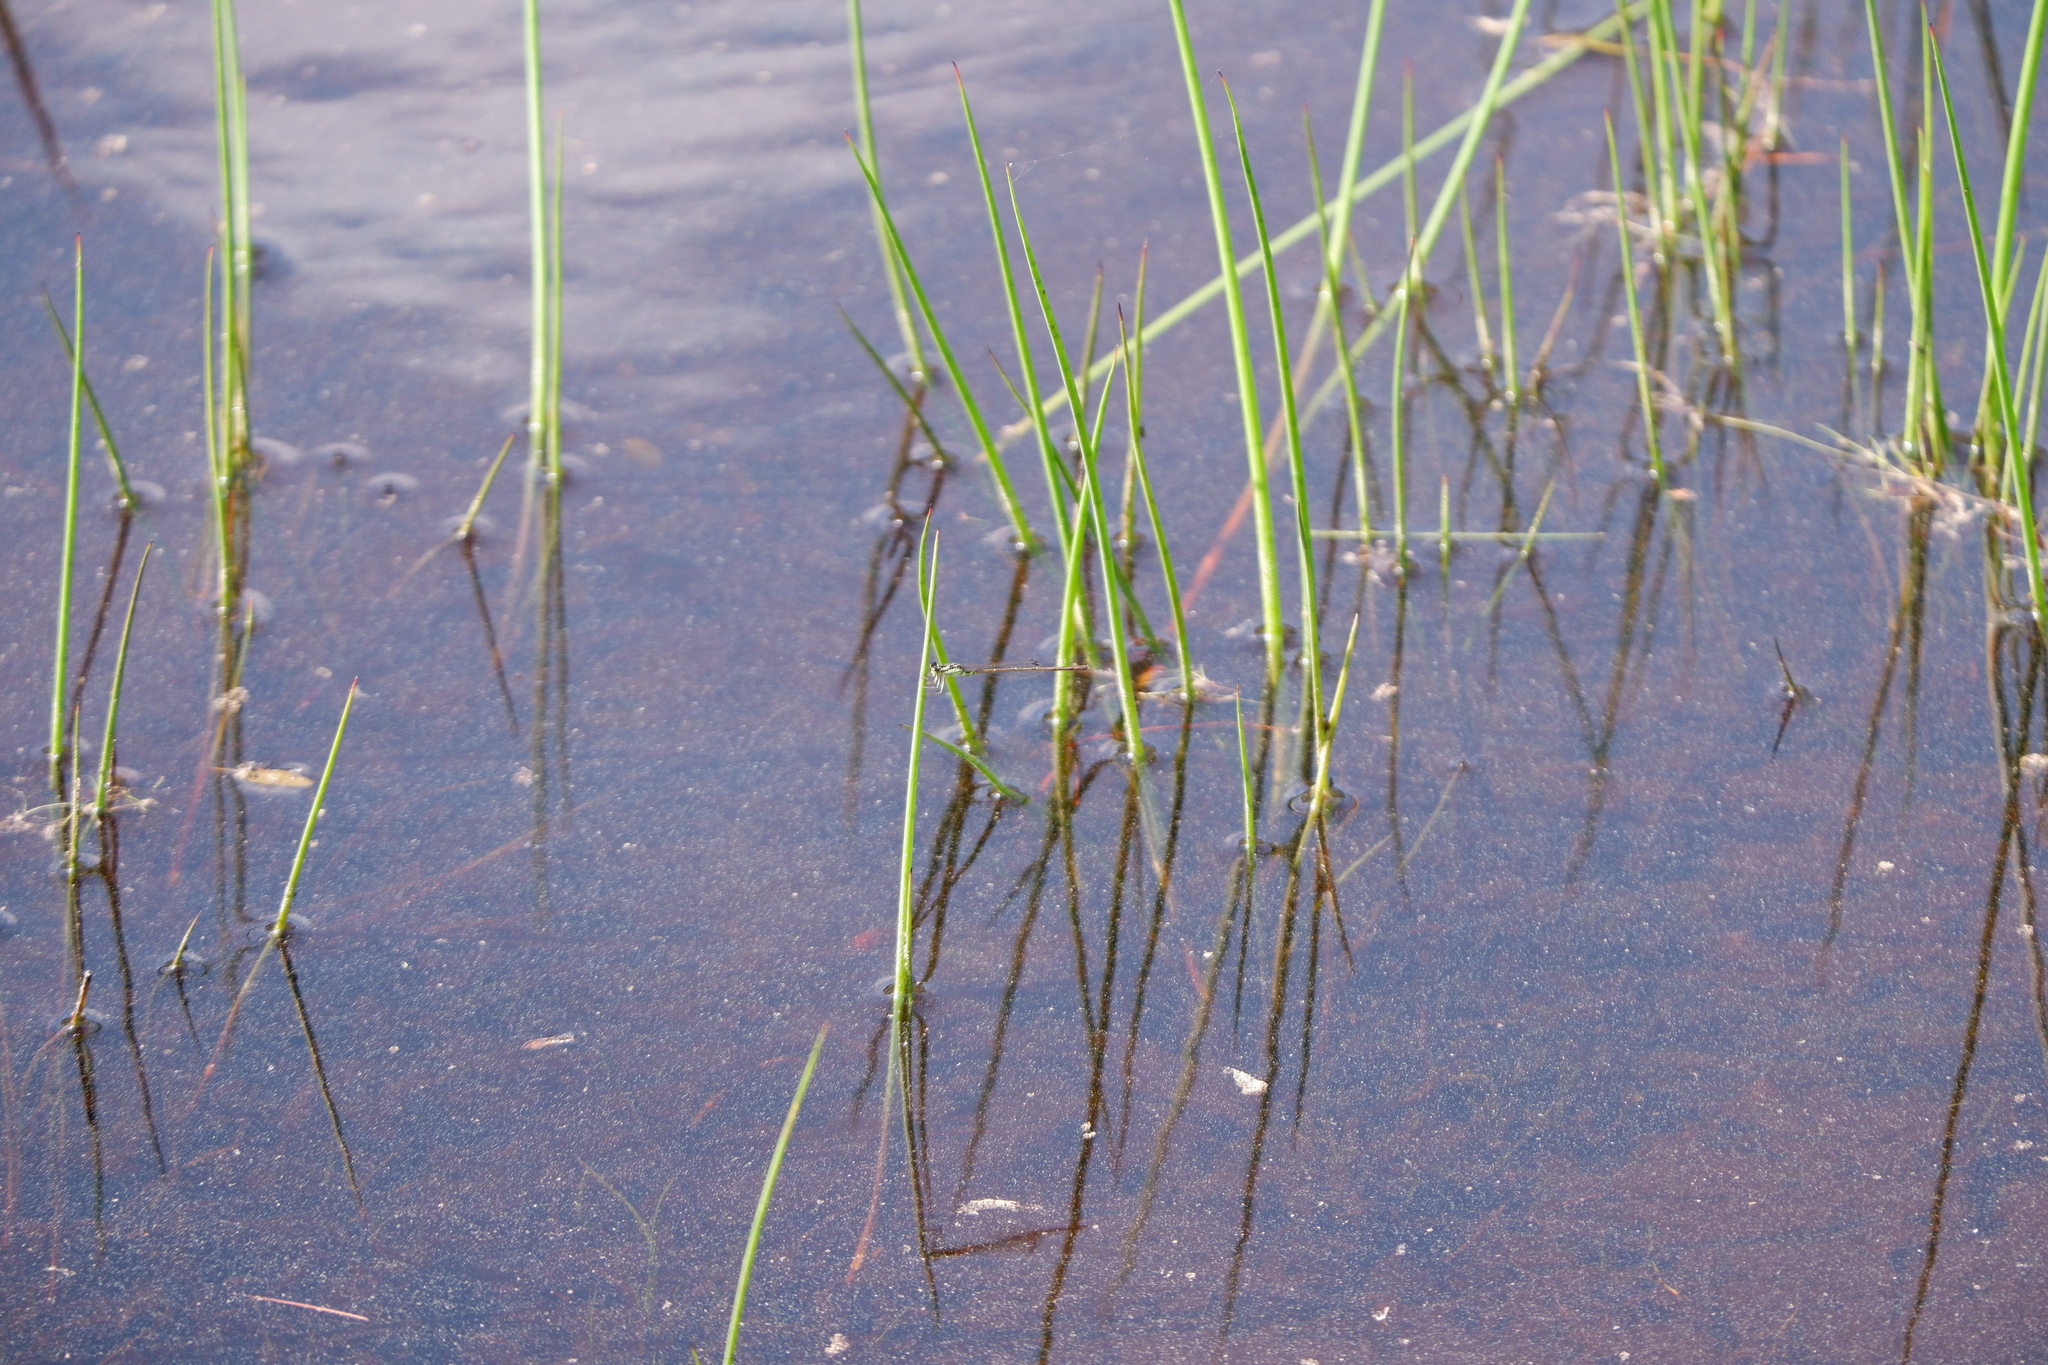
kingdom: Animalia
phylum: Arthropoda
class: Insecta
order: Odonata
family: Coenagrionidae
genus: Ischnura
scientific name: Ischnura posita
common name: Fragile forktail
